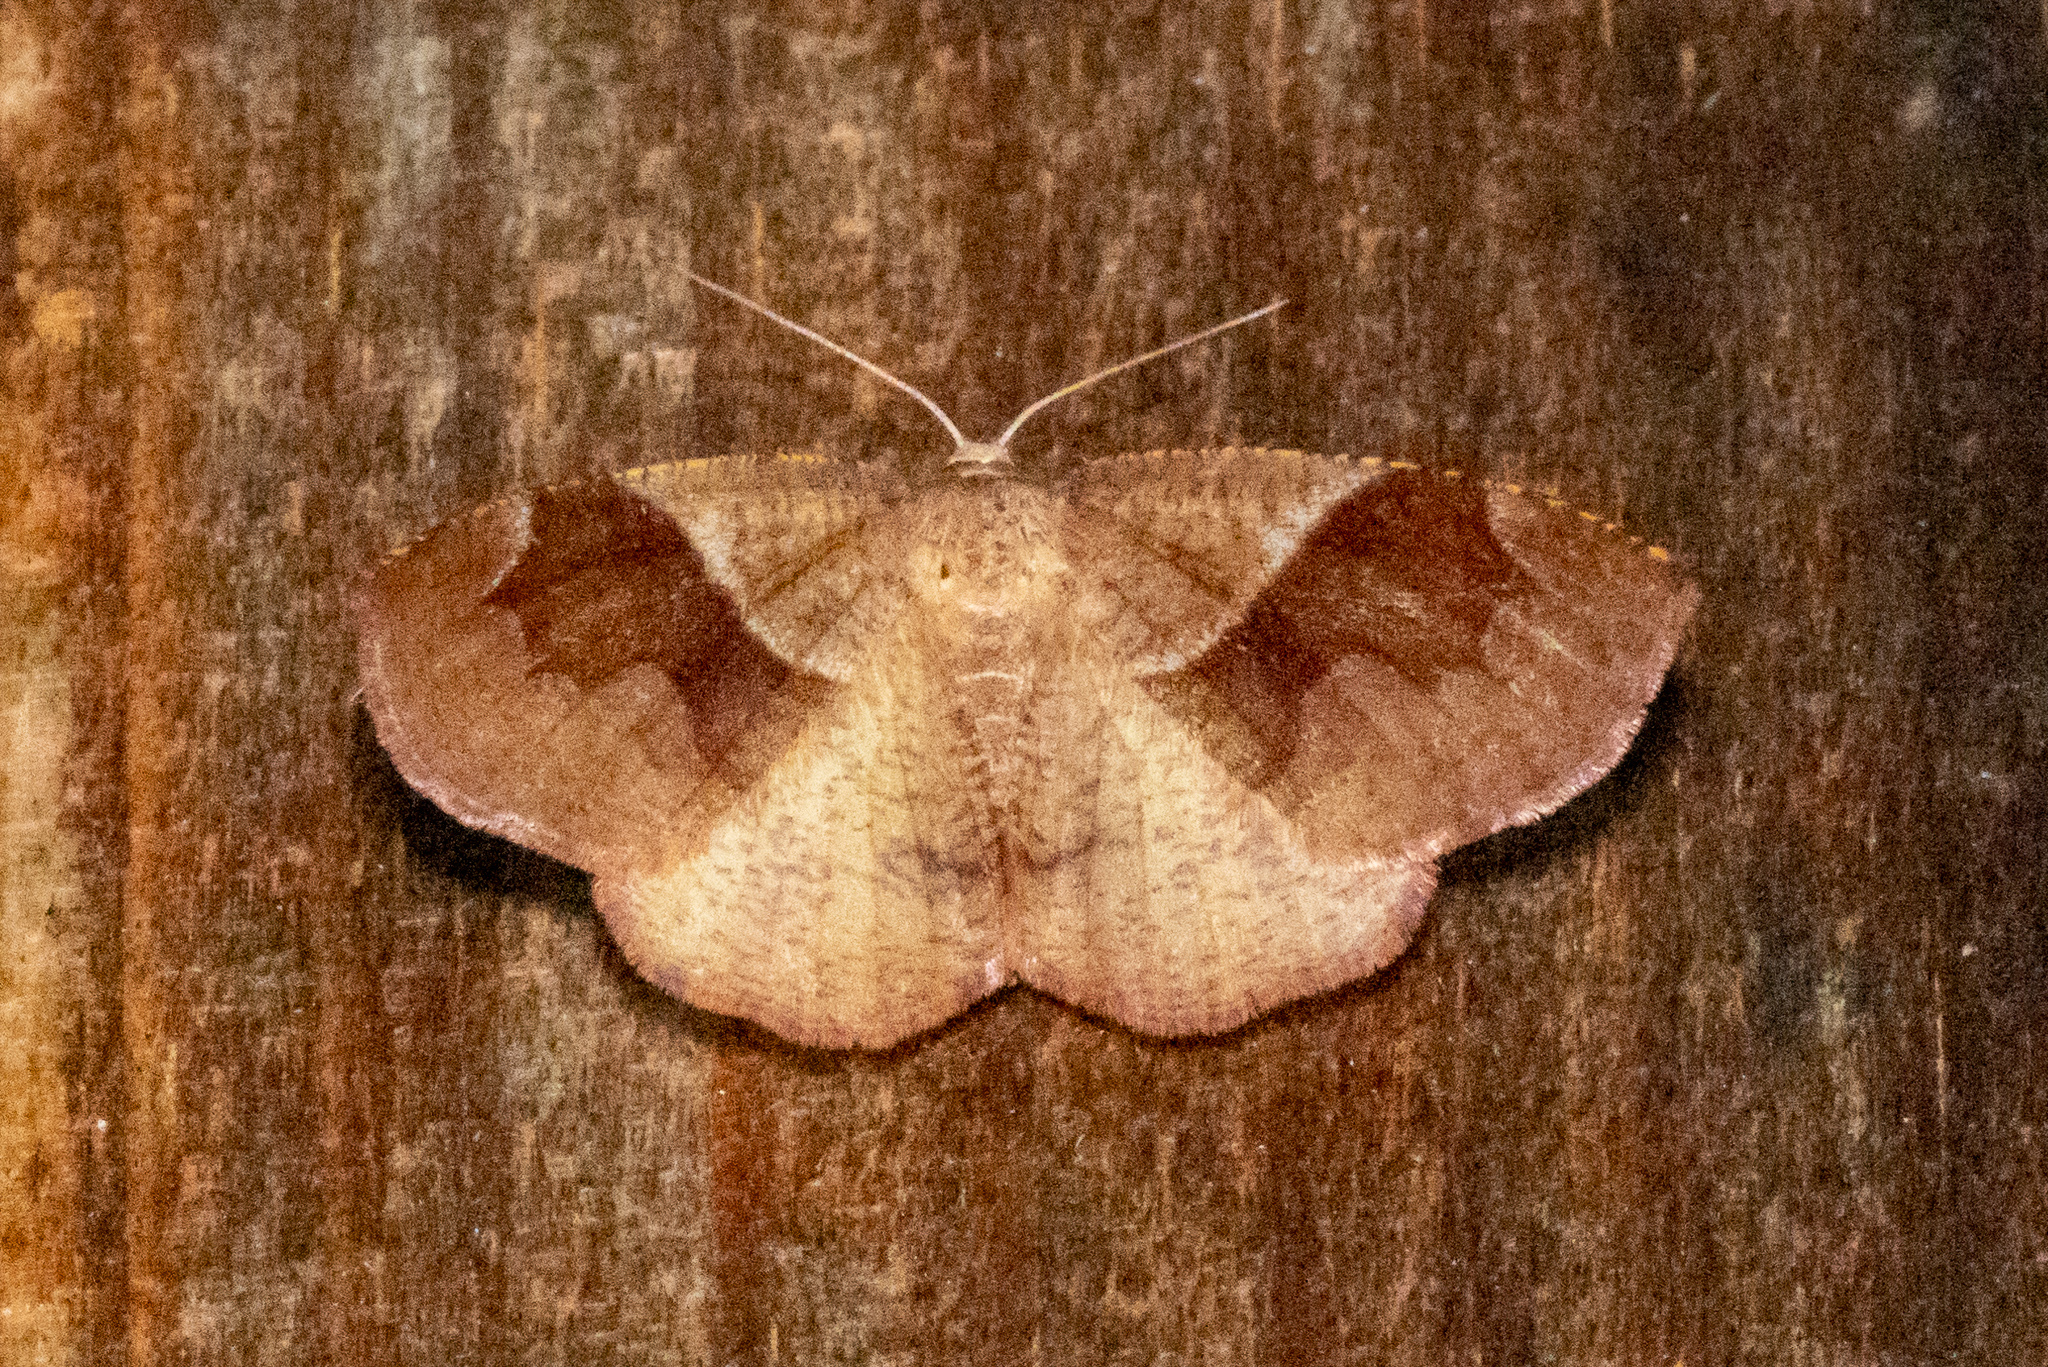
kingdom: Animalia
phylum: Arthropoda
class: Insecta
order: Lepidoptera
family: Geometridae
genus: Plagodis
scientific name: Plagodis pulveraria
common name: Barred umber
